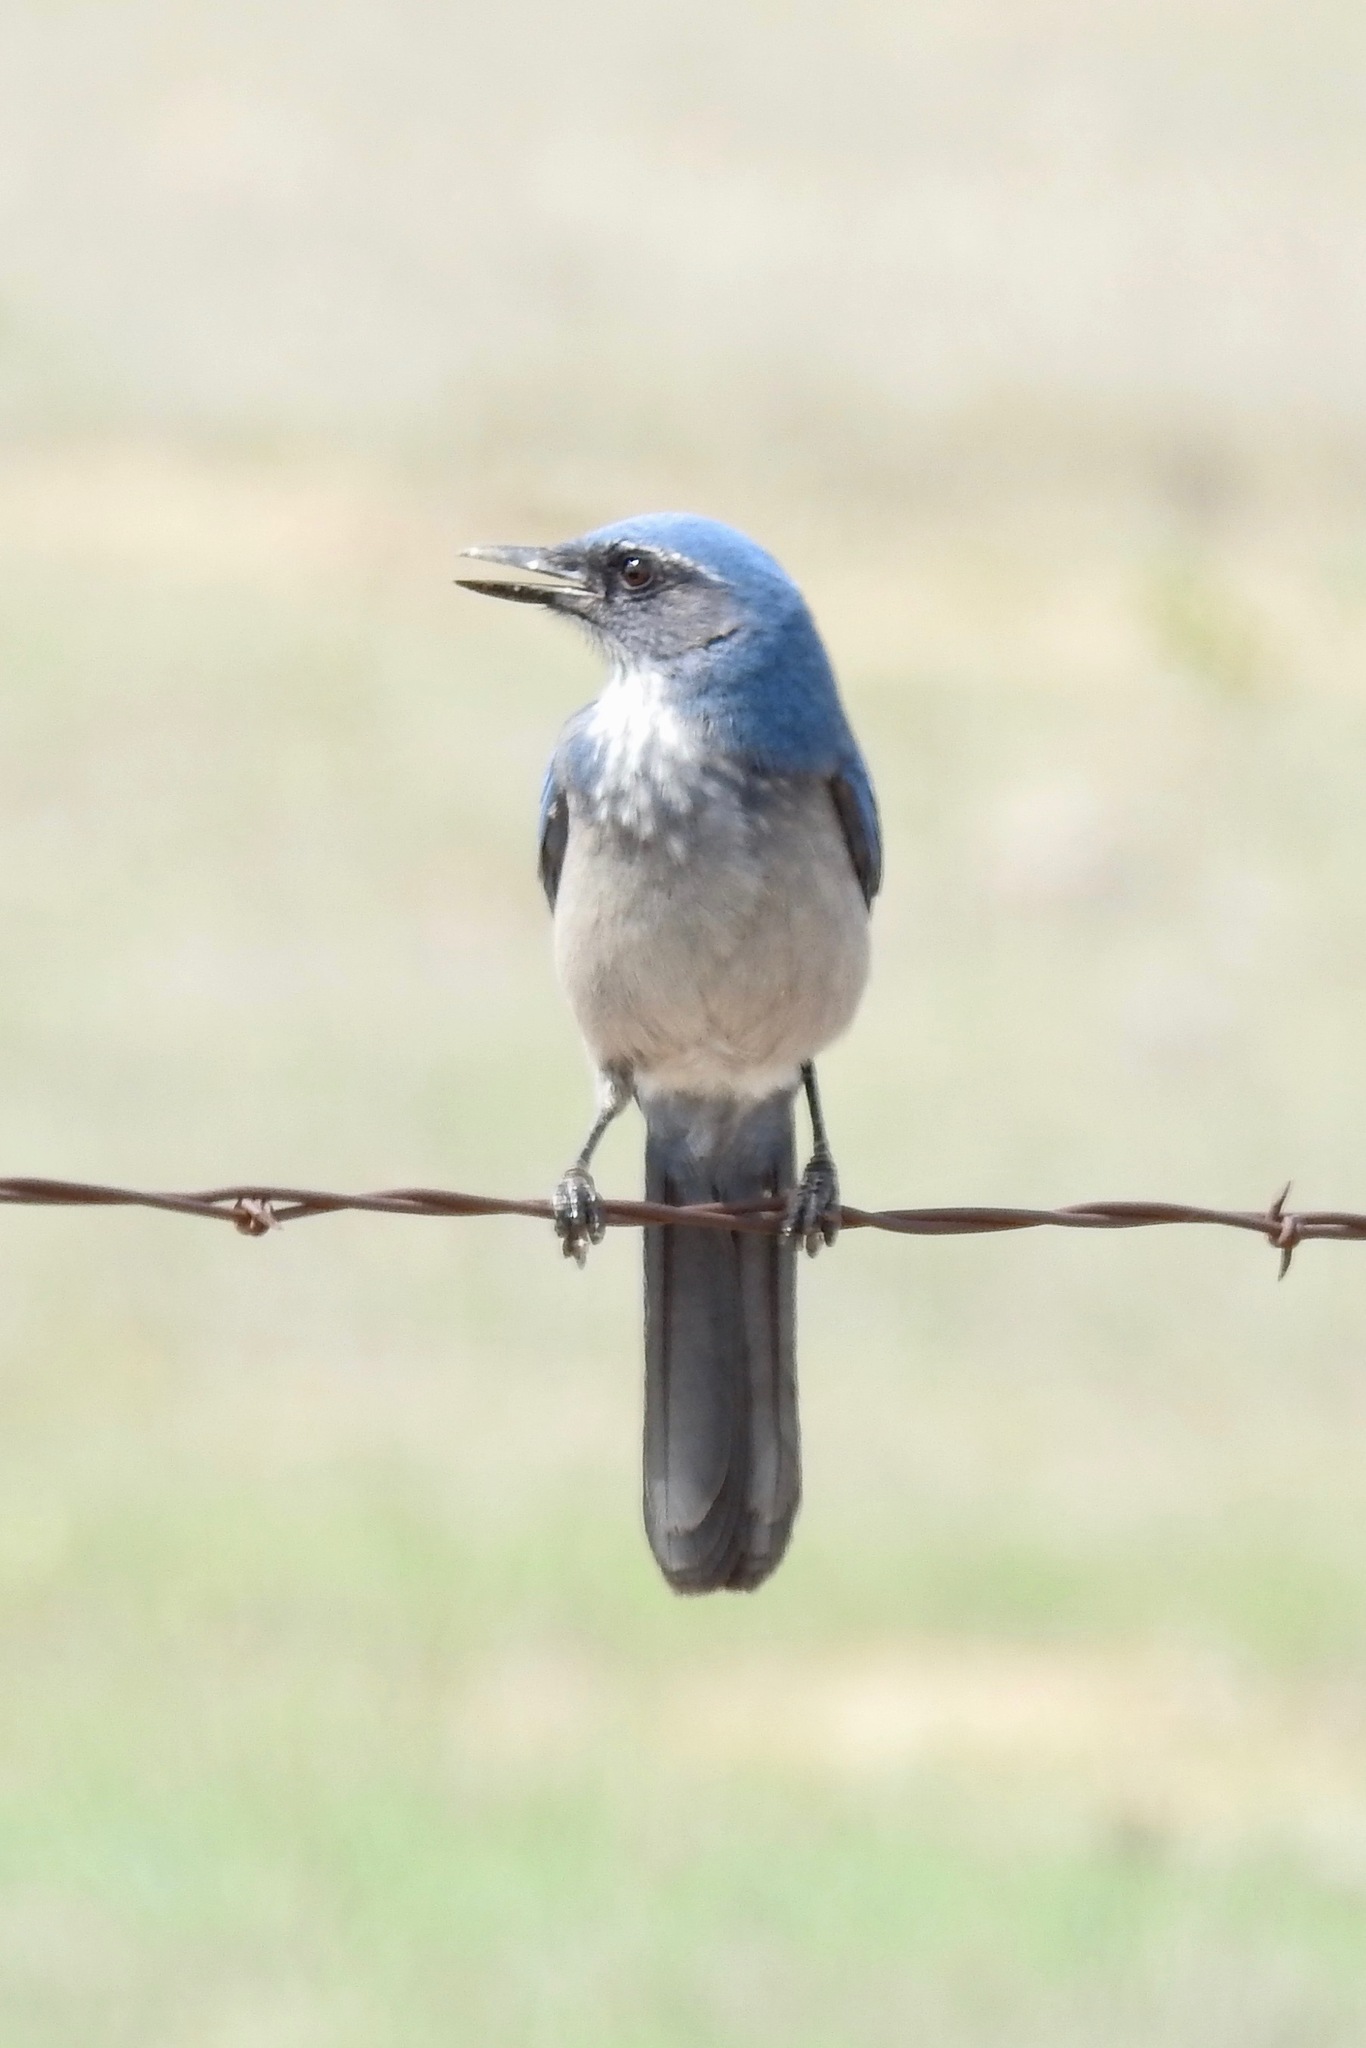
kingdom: Animalia
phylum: Chordata
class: Aves
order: Passeriformes
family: Corvidae
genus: Aphelocoma
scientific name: Aphelocoma woodhouseii
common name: Woodhouse's scrub-jay
